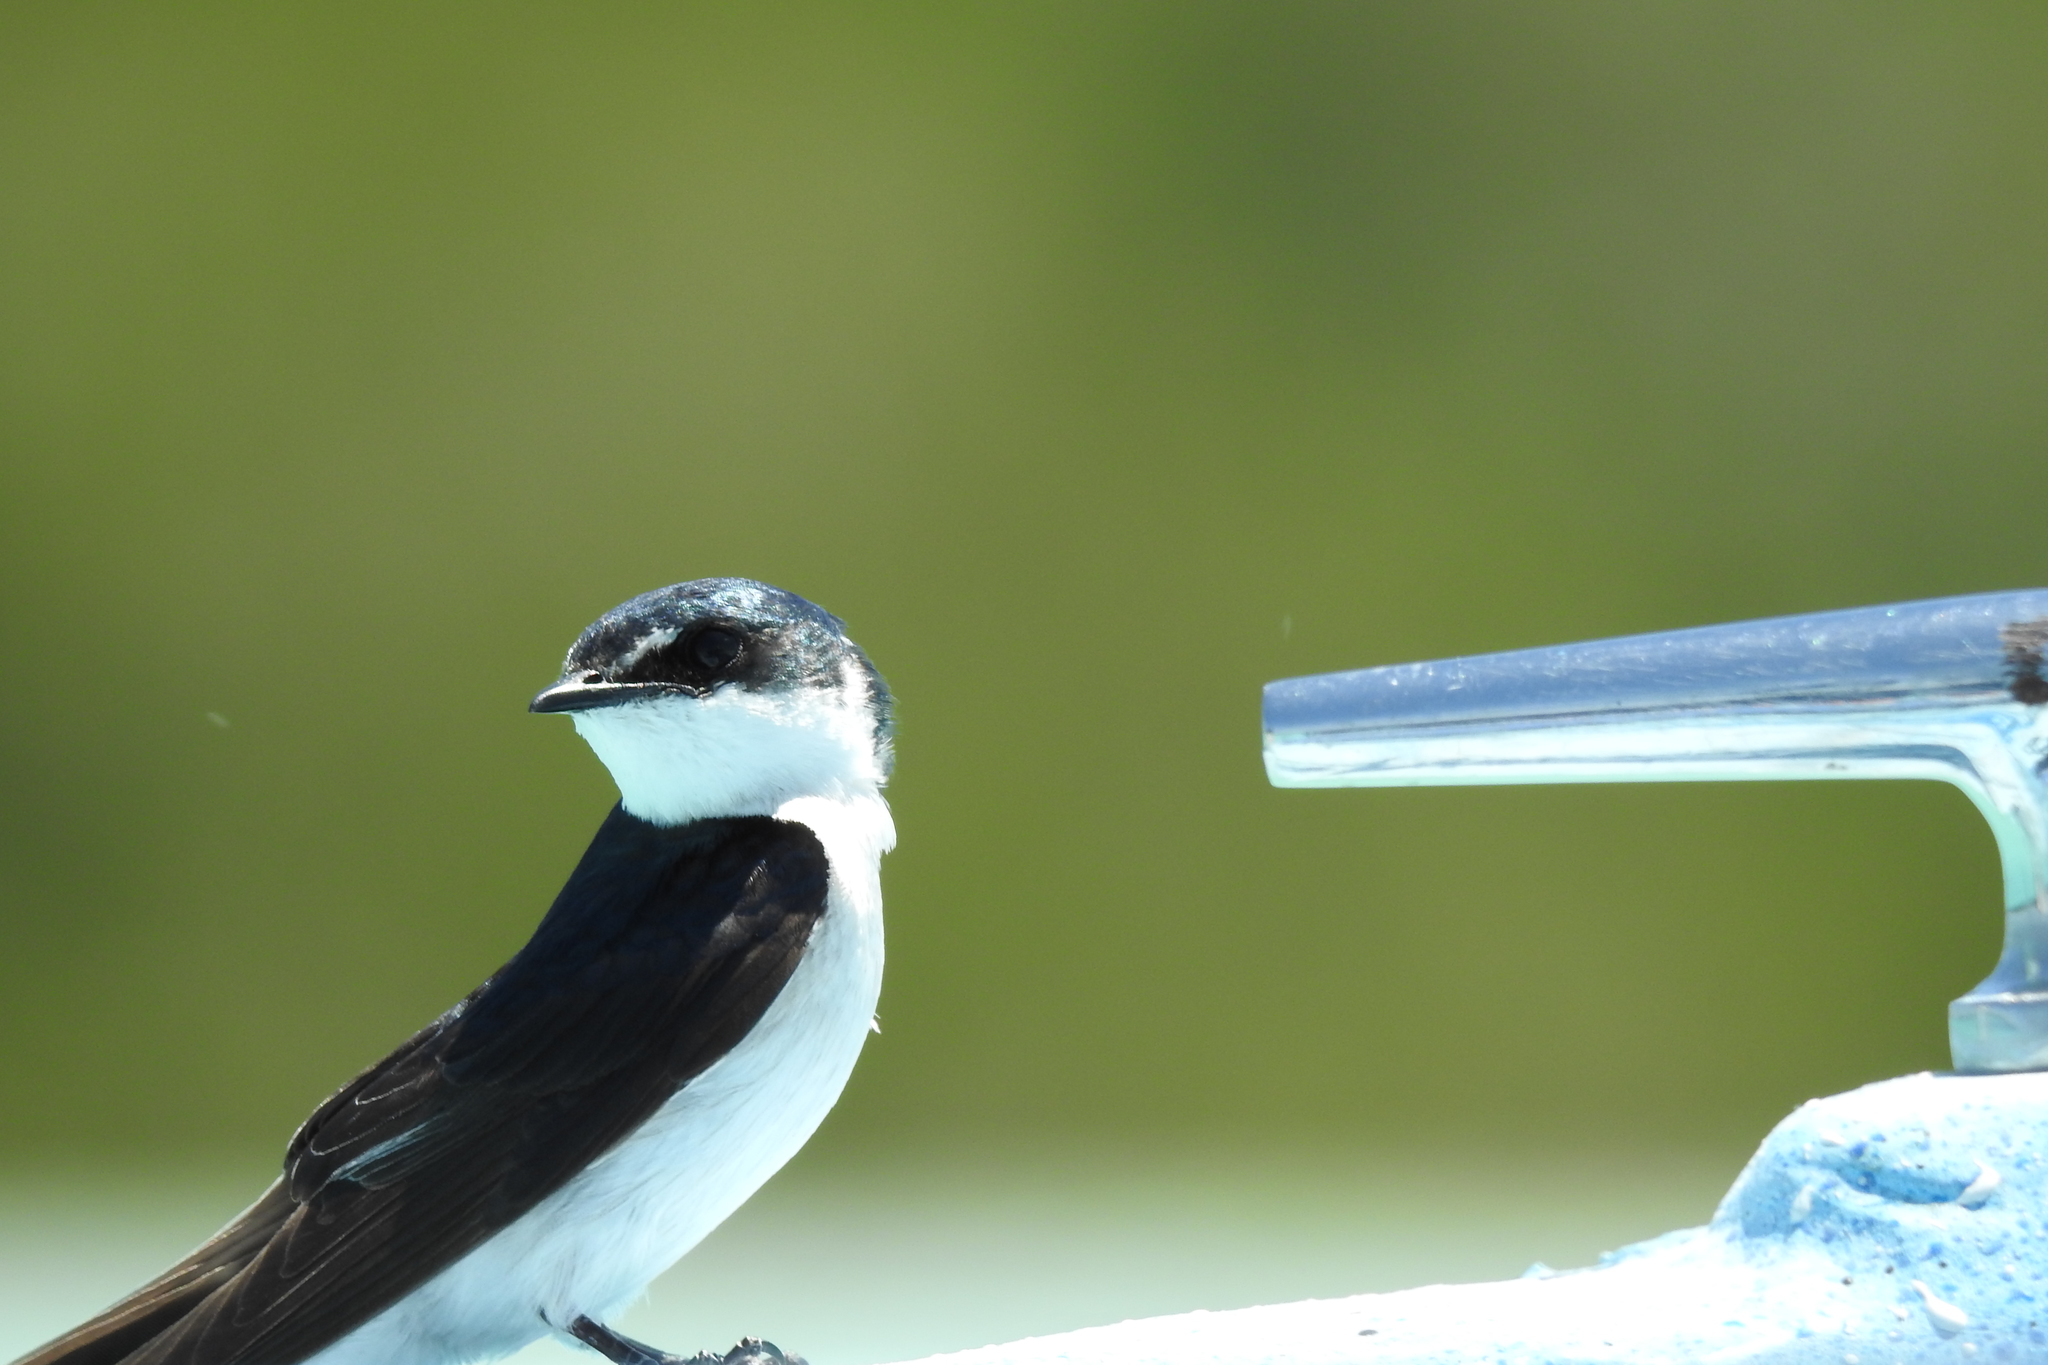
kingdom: Animalia
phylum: Chordata
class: Aves
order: Passeriformes
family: Hirundinidae
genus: Tachycineta
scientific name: Tachycineta albilinea
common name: Mangrove swallow
